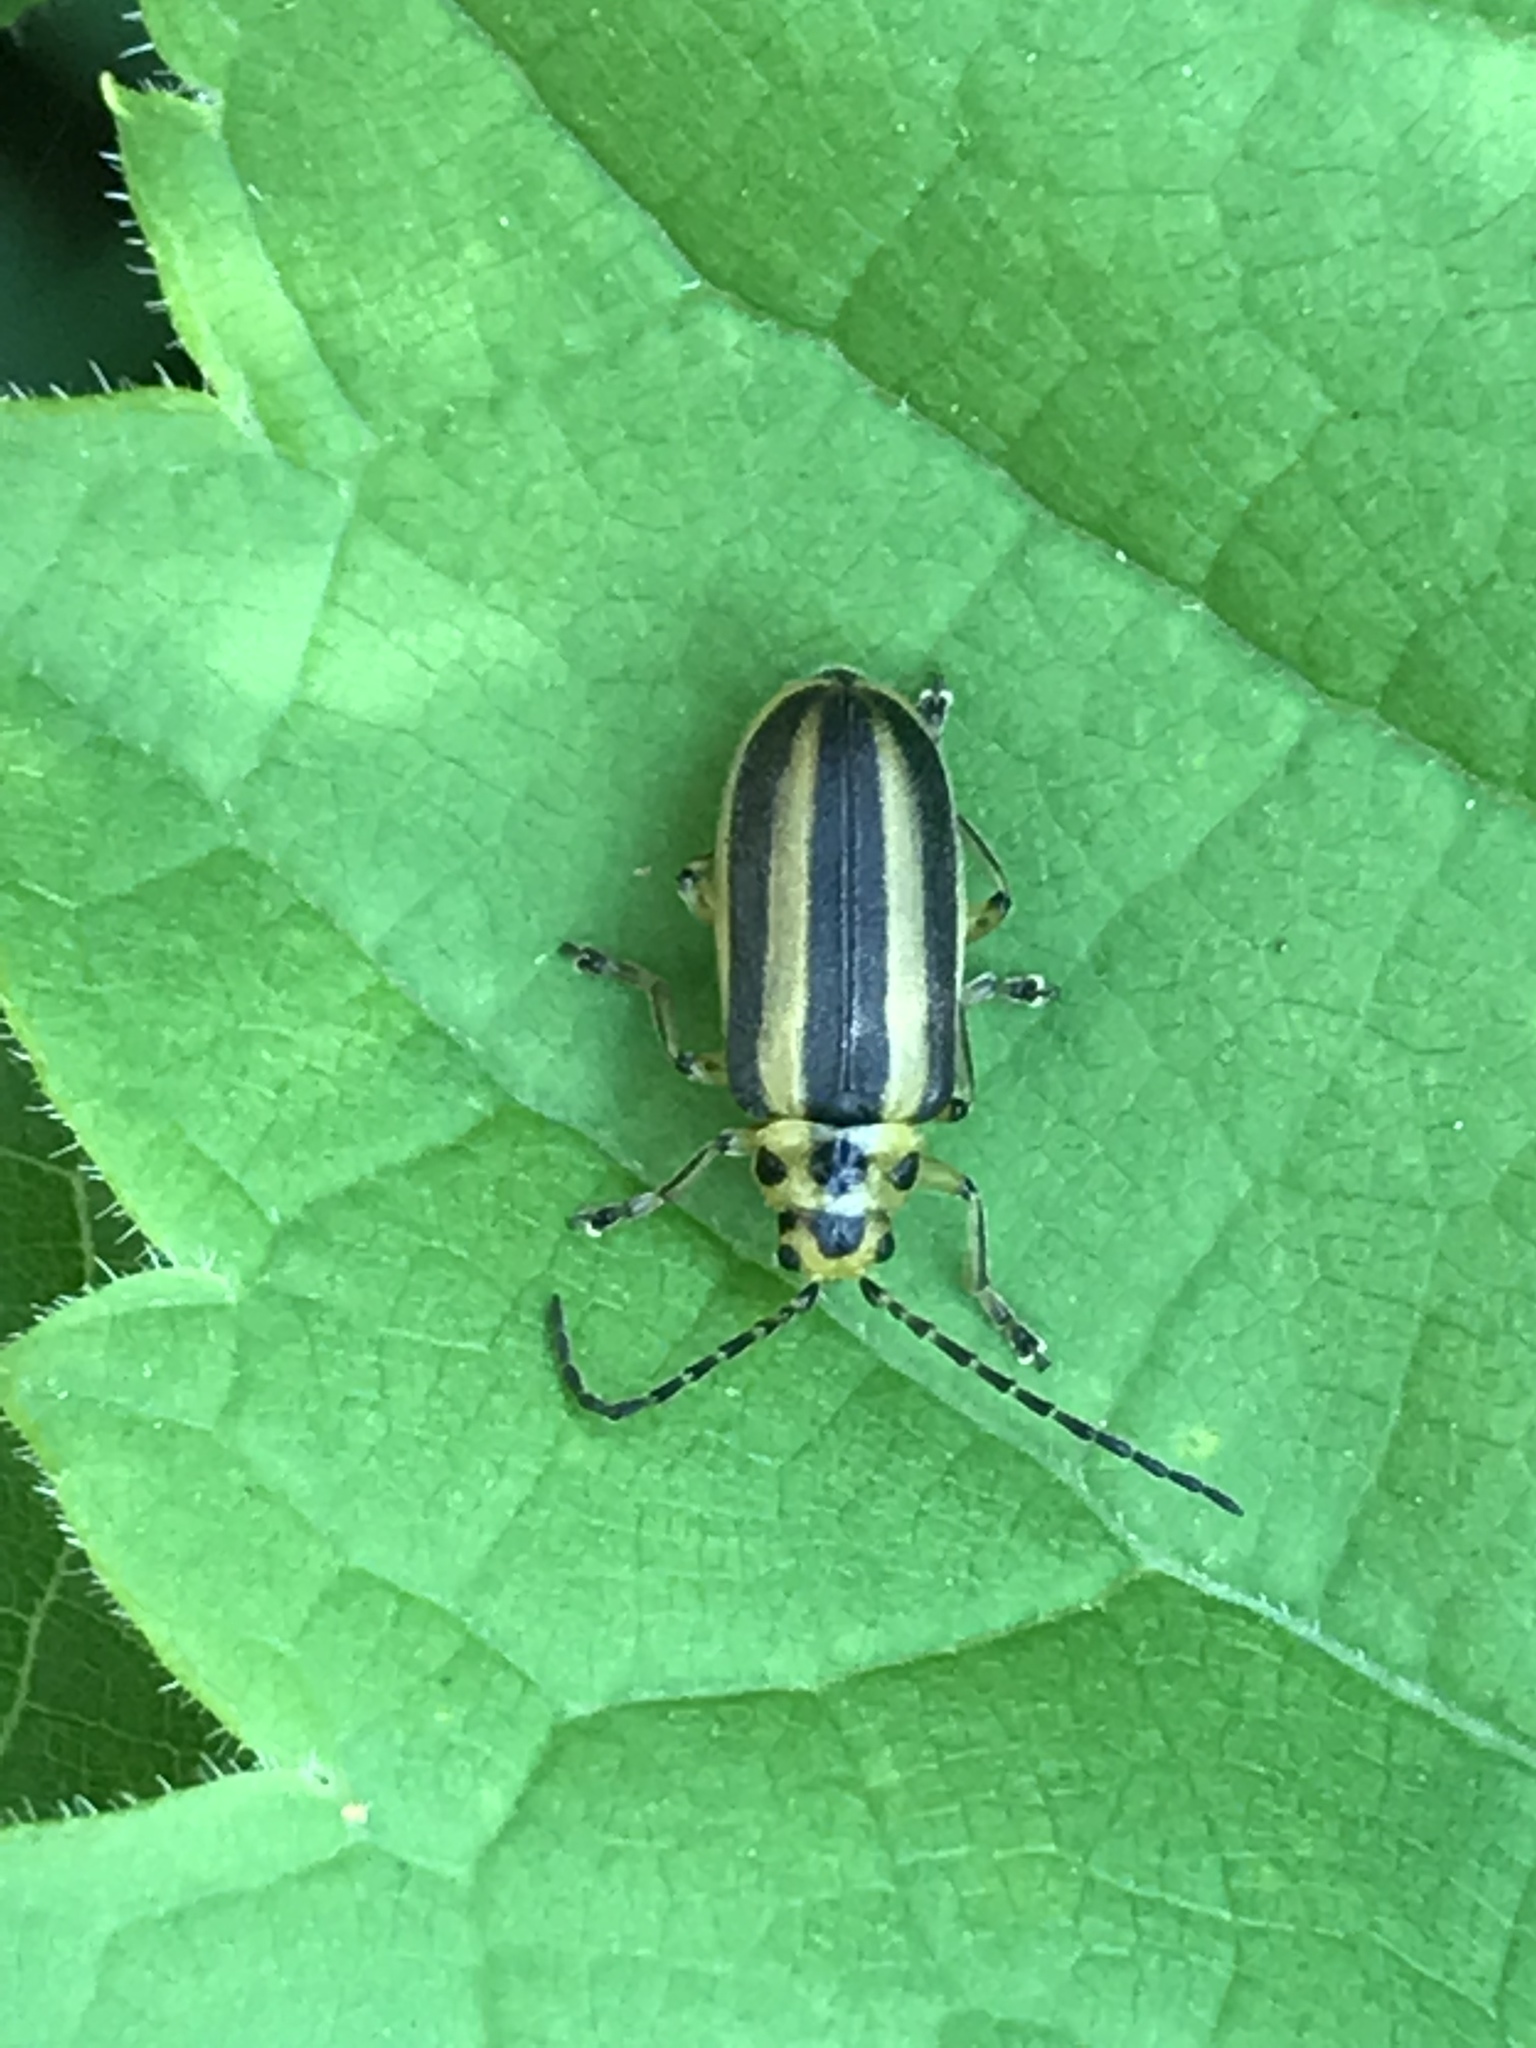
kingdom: Animalia
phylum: Arthropoda
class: Insecta
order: Coleoptera
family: Chrysomelidae
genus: Trirhabda
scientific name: Trirhabda
